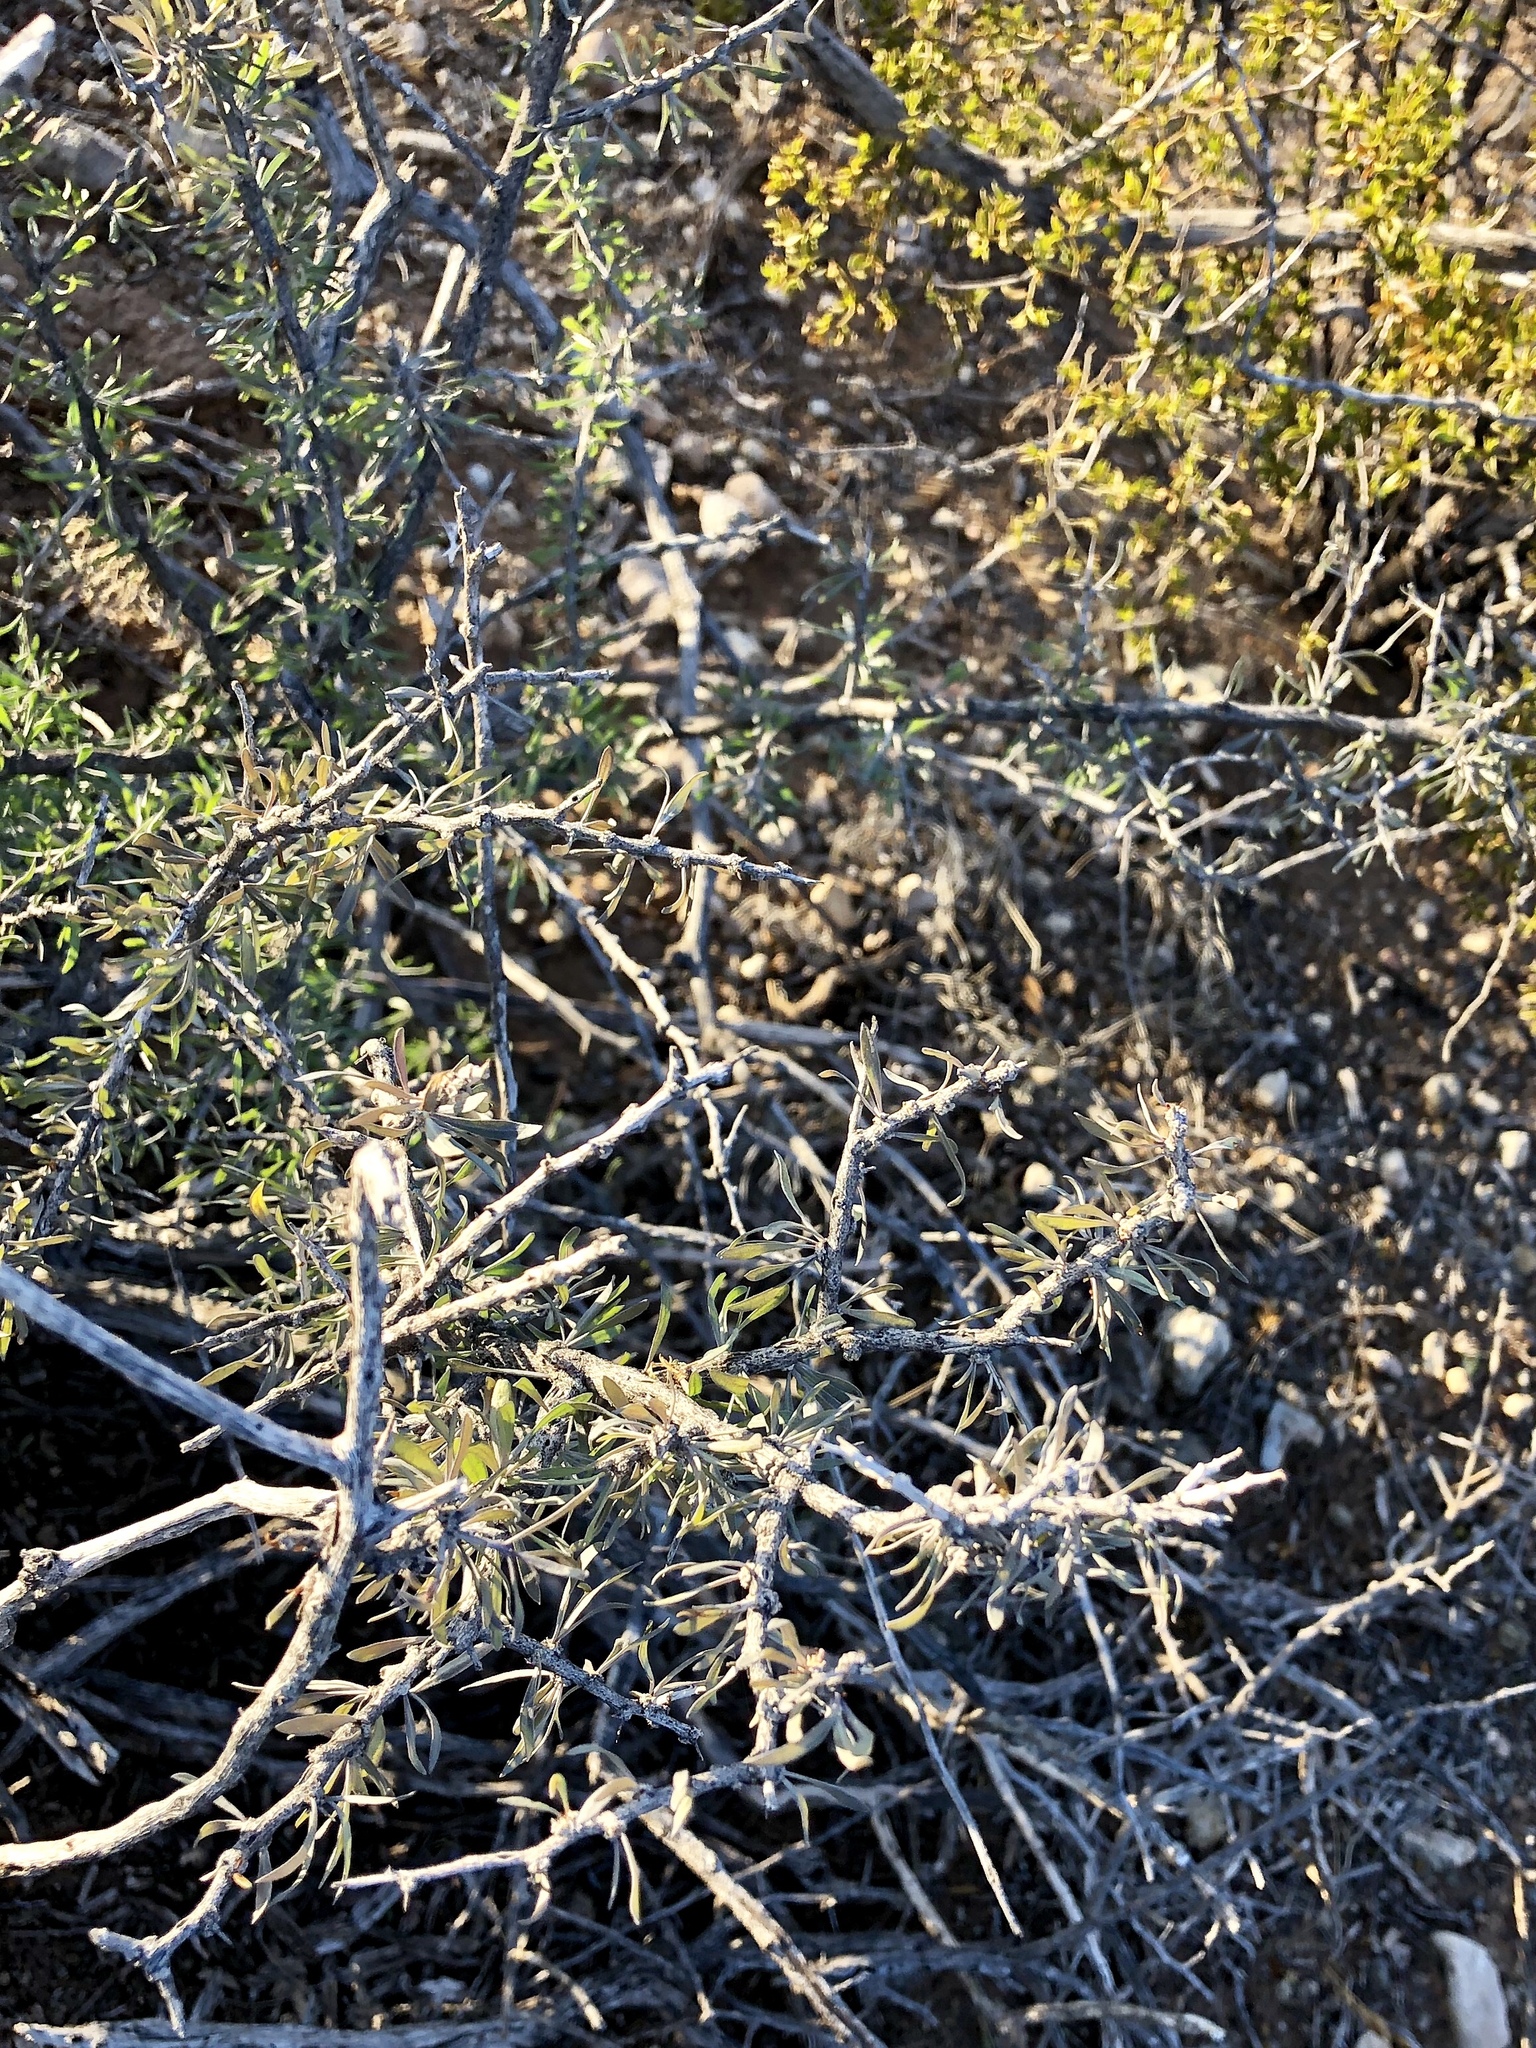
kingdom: Plantae
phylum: Tracheophyta
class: Magnoliopsida
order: Solanales
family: Solanaceae
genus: Lycium
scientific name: Lycium berlandieri
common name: Berlandier wolfberry
